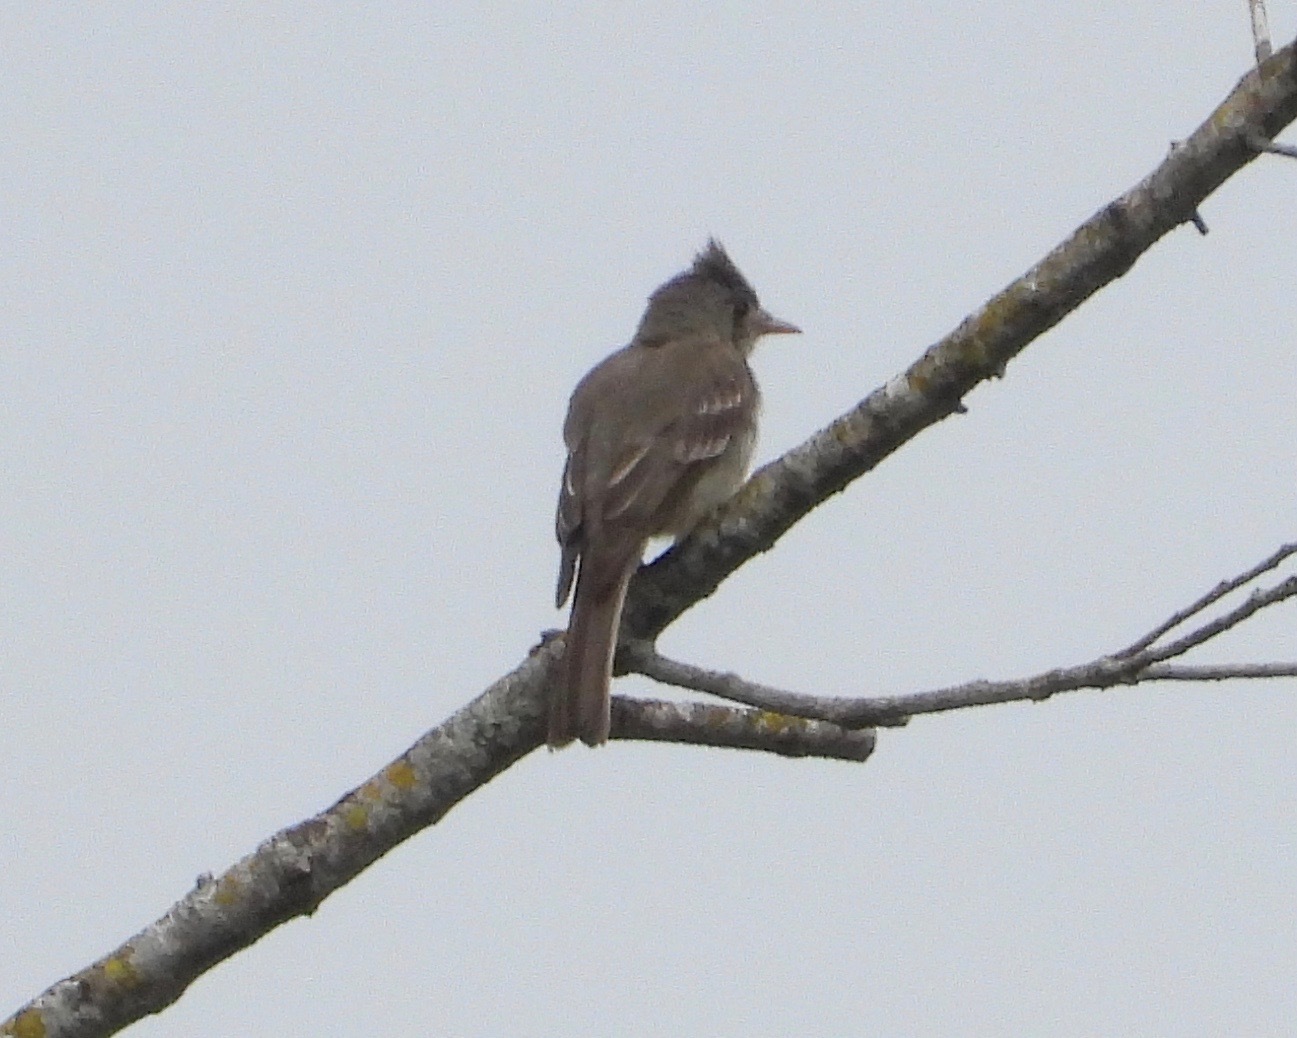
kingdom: Animalia
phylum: Chordata
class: Aves
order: Passeriformes
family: Tyrannidae
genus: Contopus
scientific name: Contopus pertinax
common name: Greater pewee
